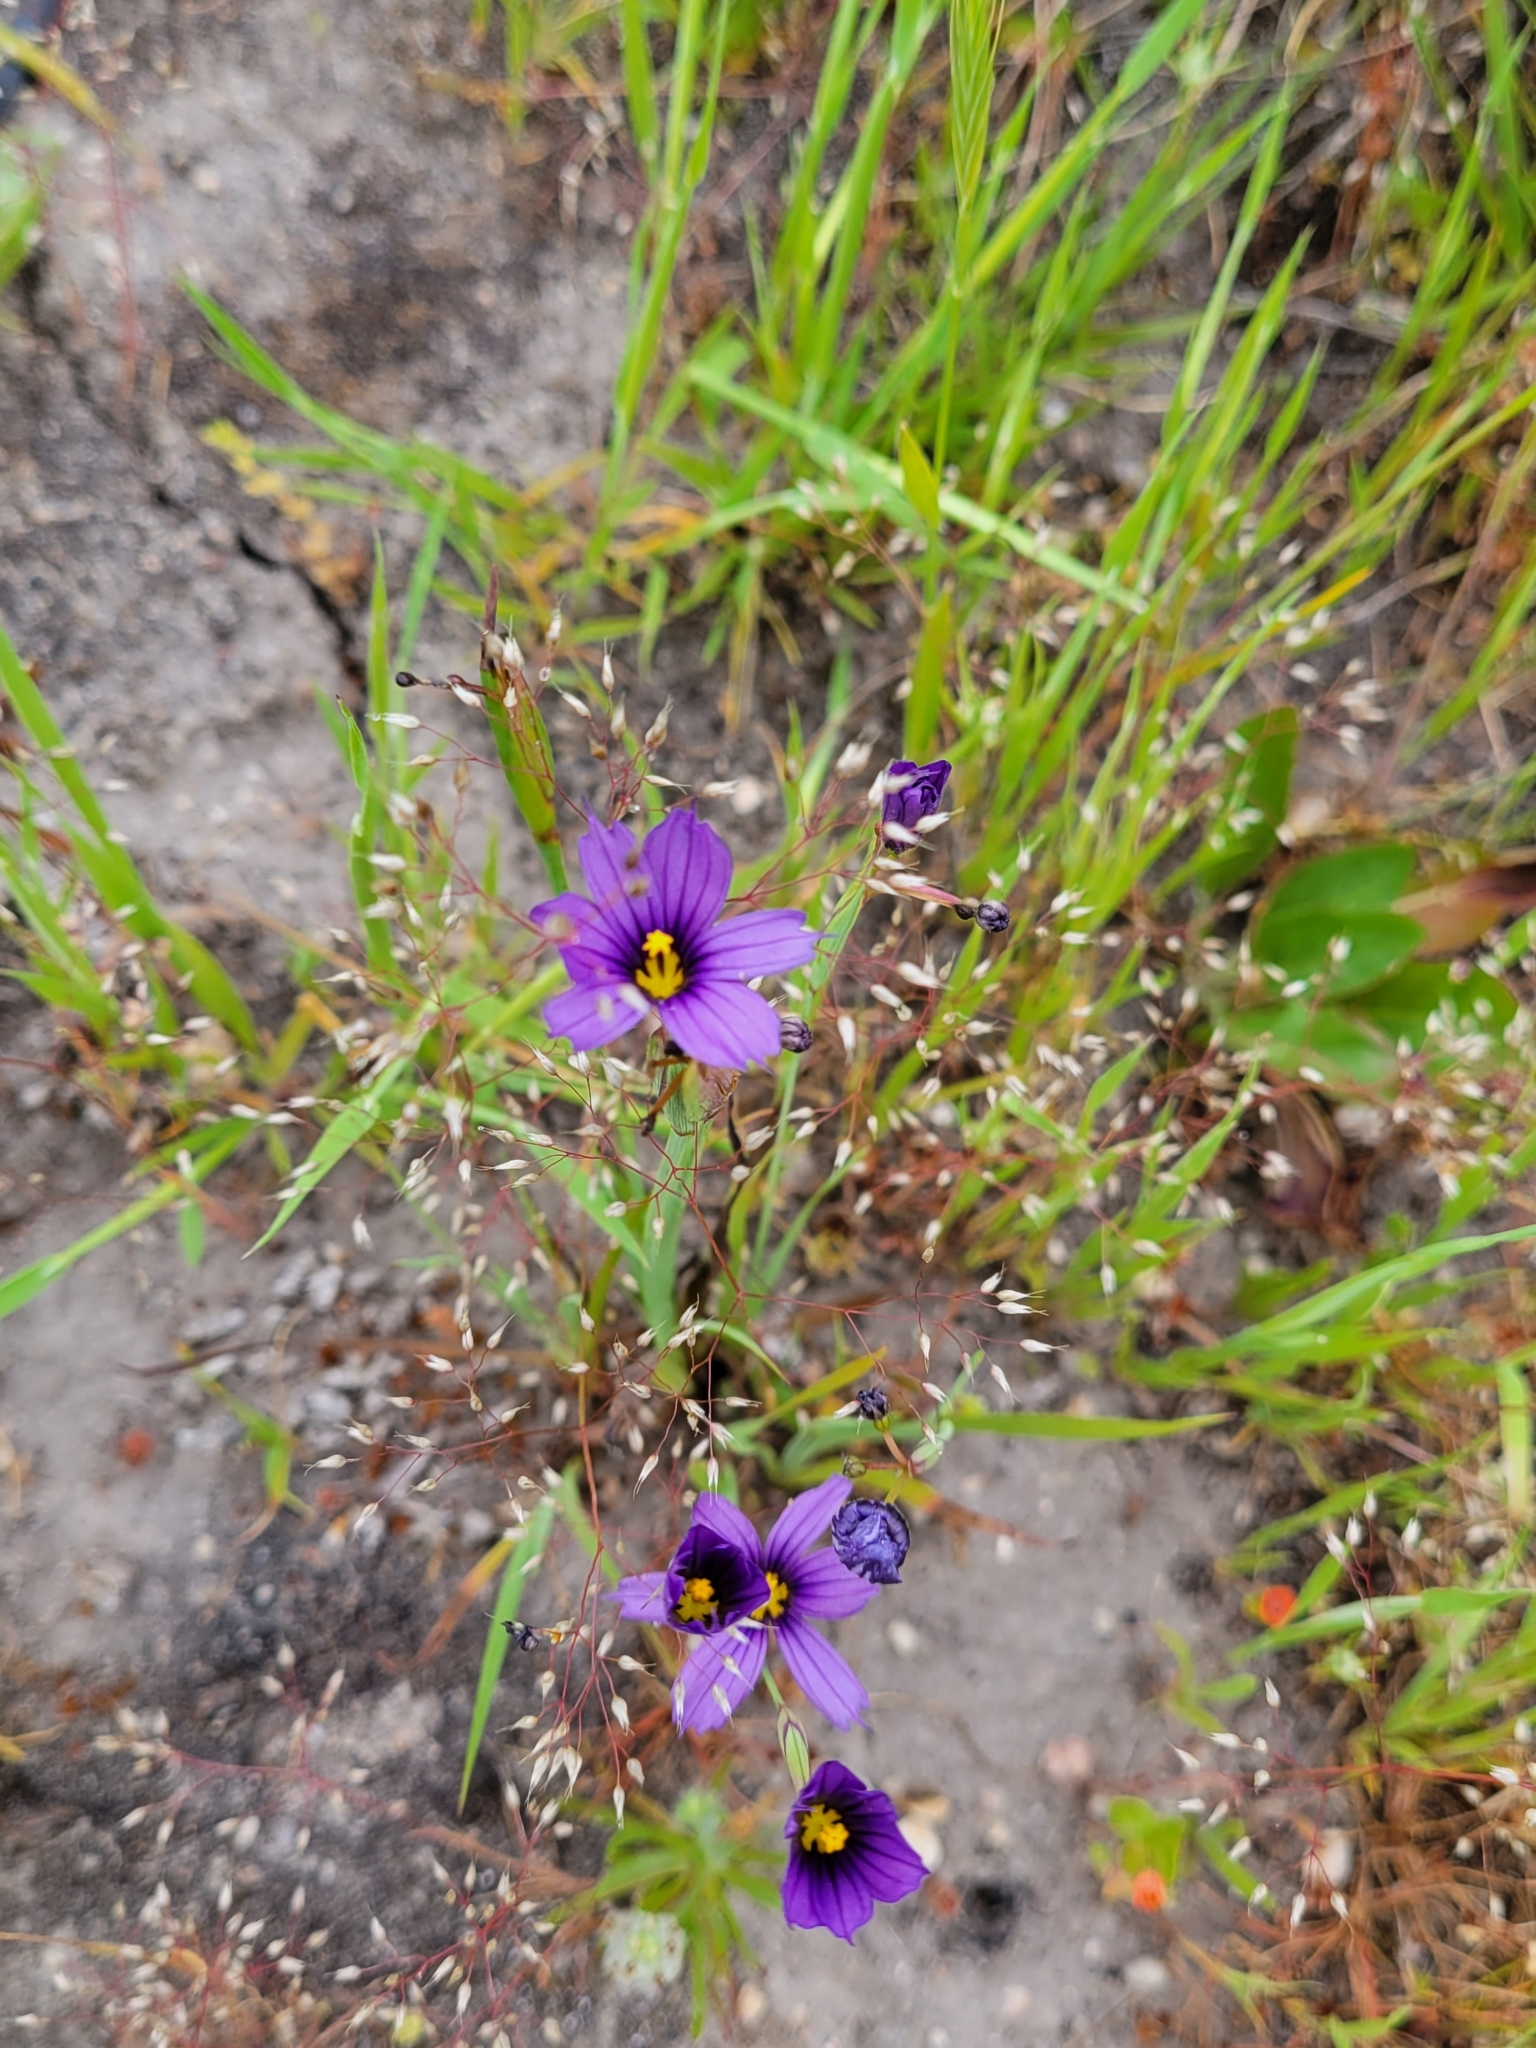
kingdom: Plantae
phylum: Tracheophyta
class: Liliopsida
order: Asparagales
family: Iridaceae
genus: Sisyrinchium
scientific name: Sisyrinchium bellum
